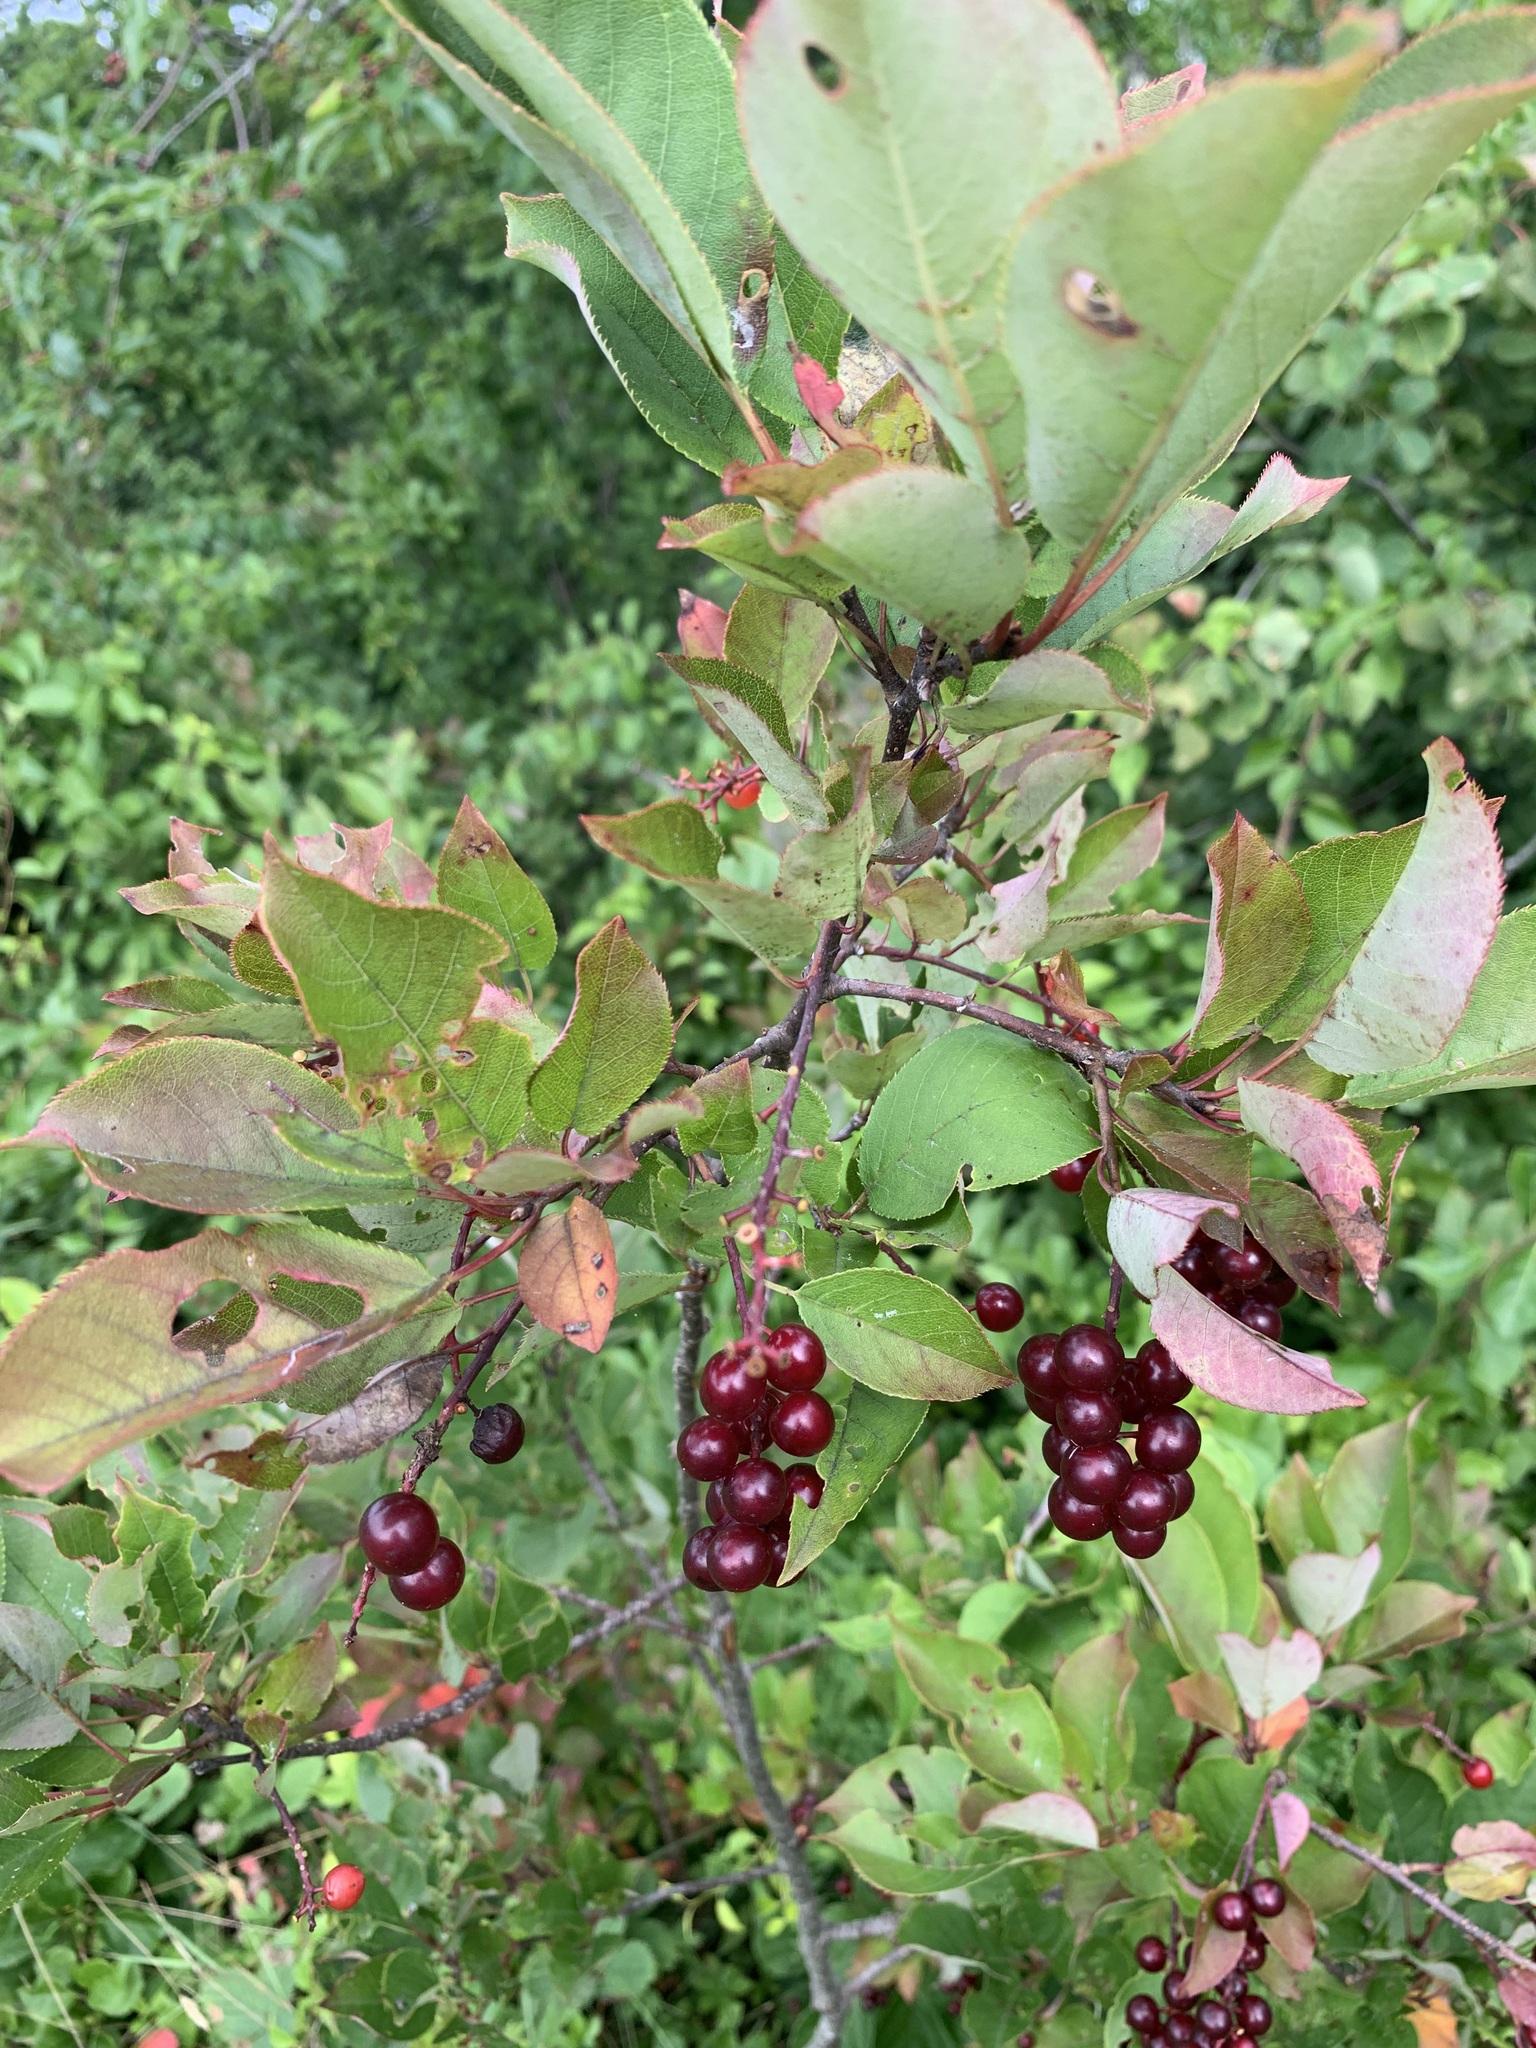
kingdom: Plantae
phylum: Tracheophyta
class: Magnoliopsida
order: Rosales
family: Rosaceae
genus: Prunus
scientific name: Prunus virginiana
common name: Chokecherry
